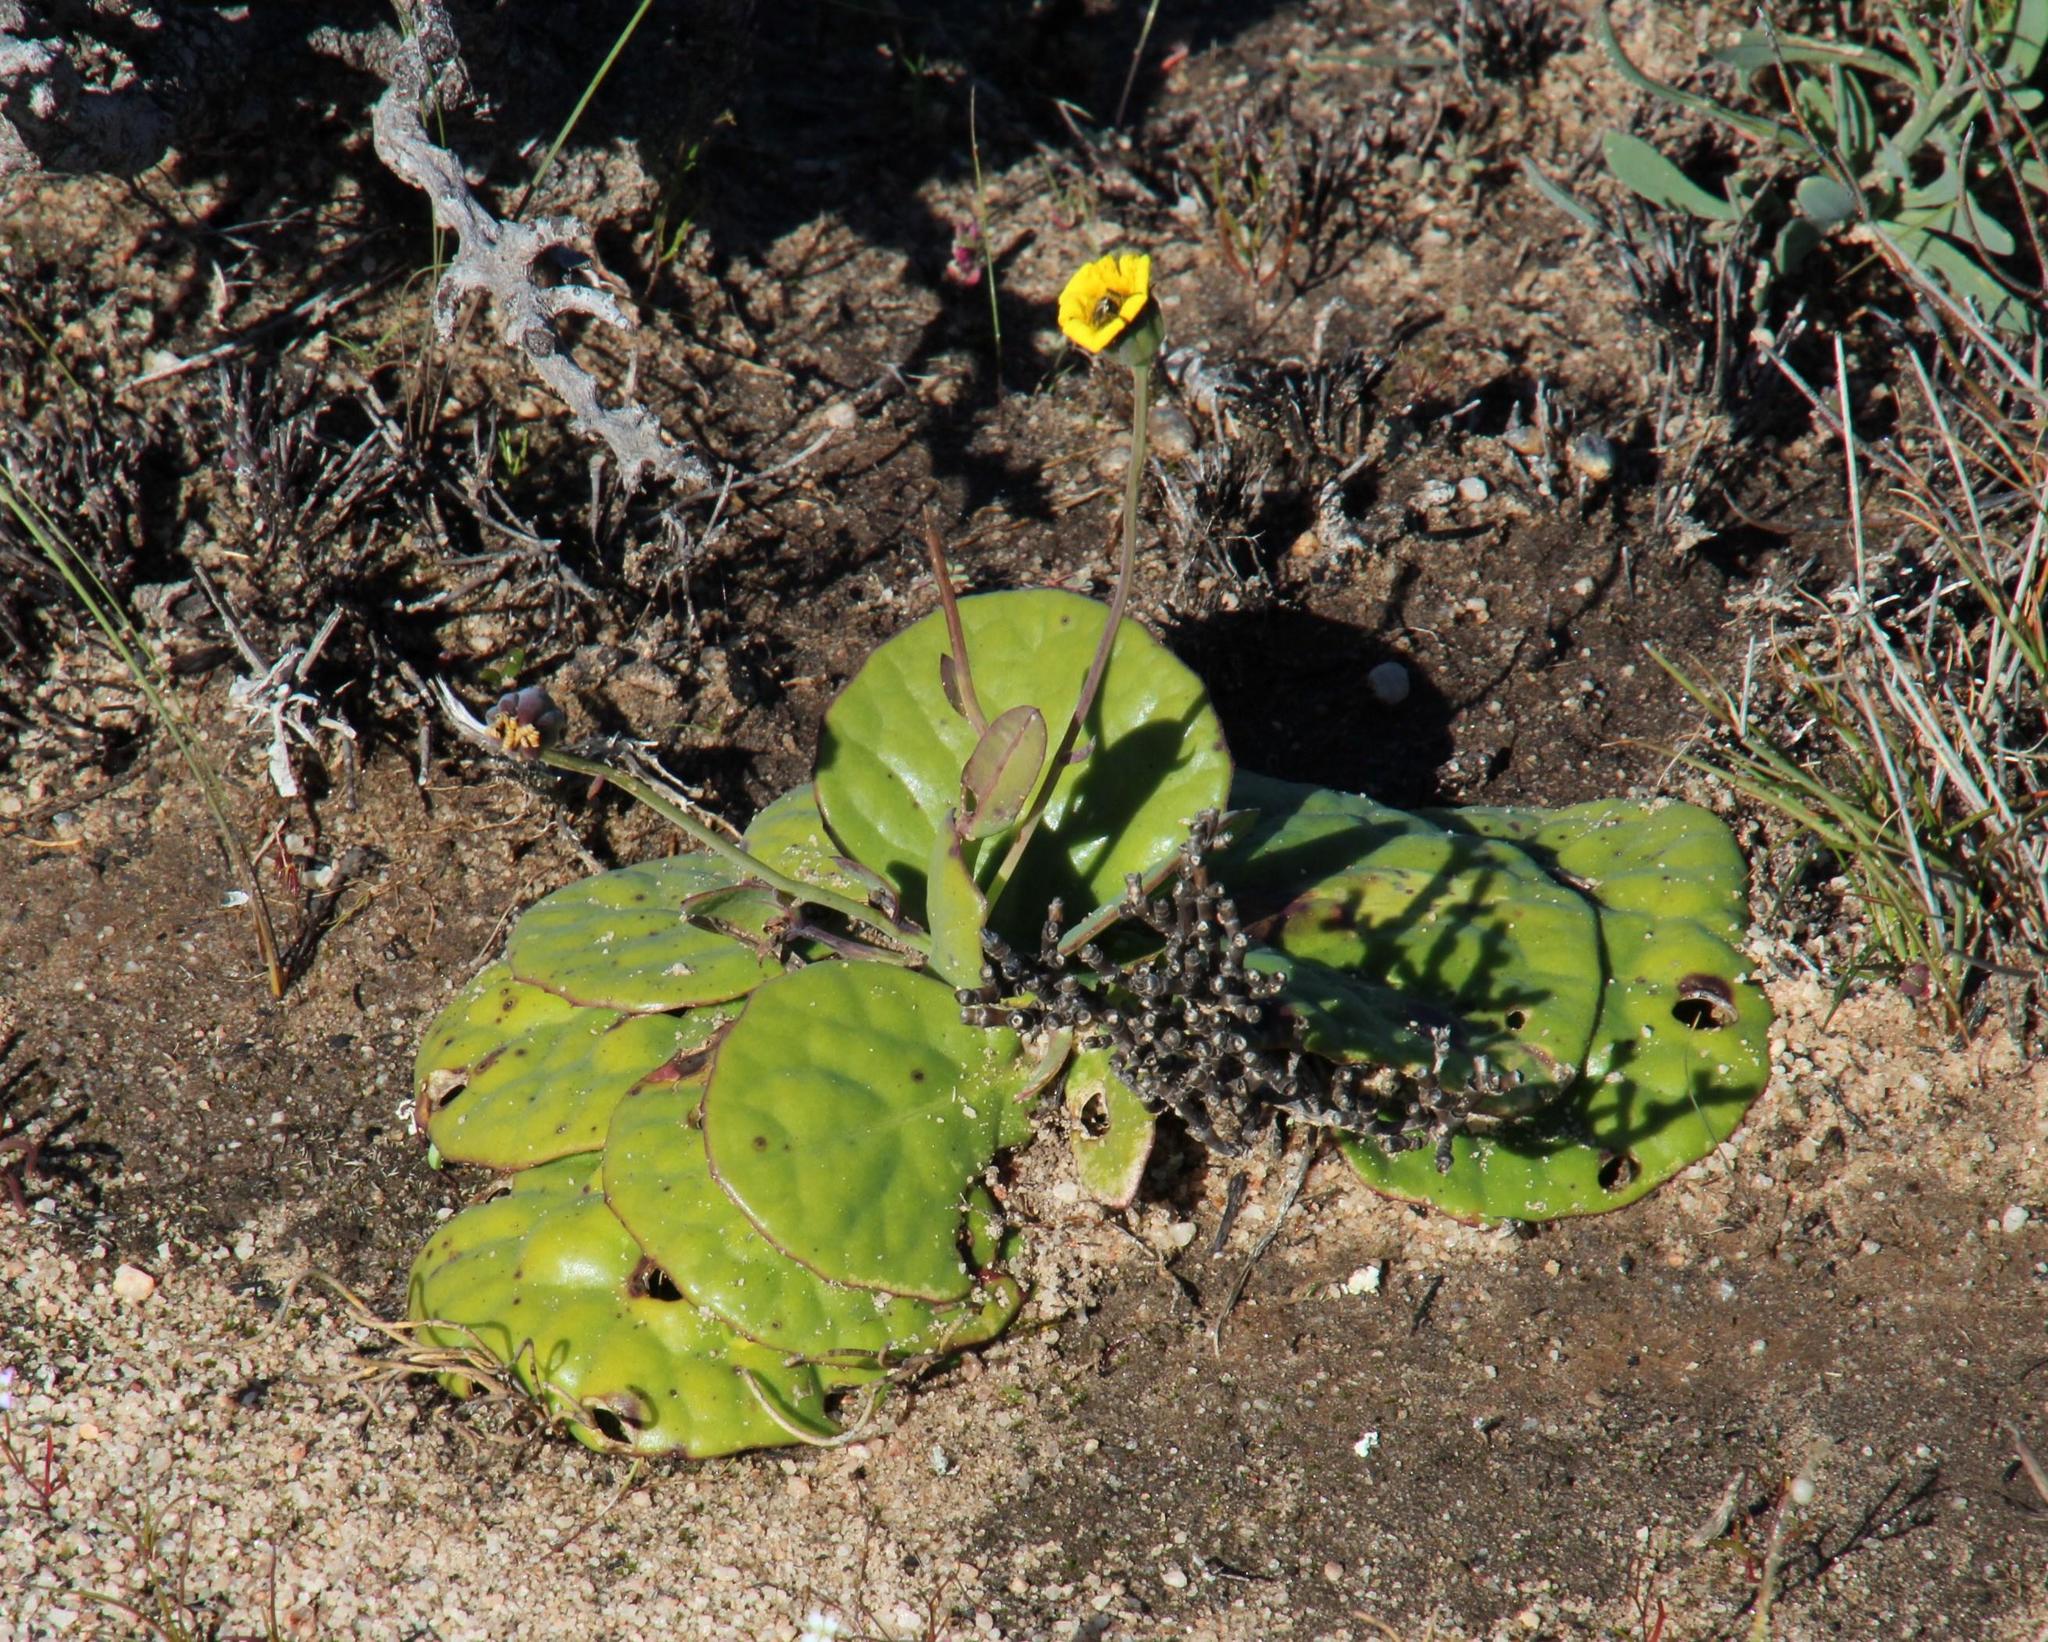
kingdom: Plantae
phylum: Tracheophyta
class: Magnoliopsida
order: Asterales
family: Asteraceae
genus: Othonna
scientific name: Othonna oleracea
